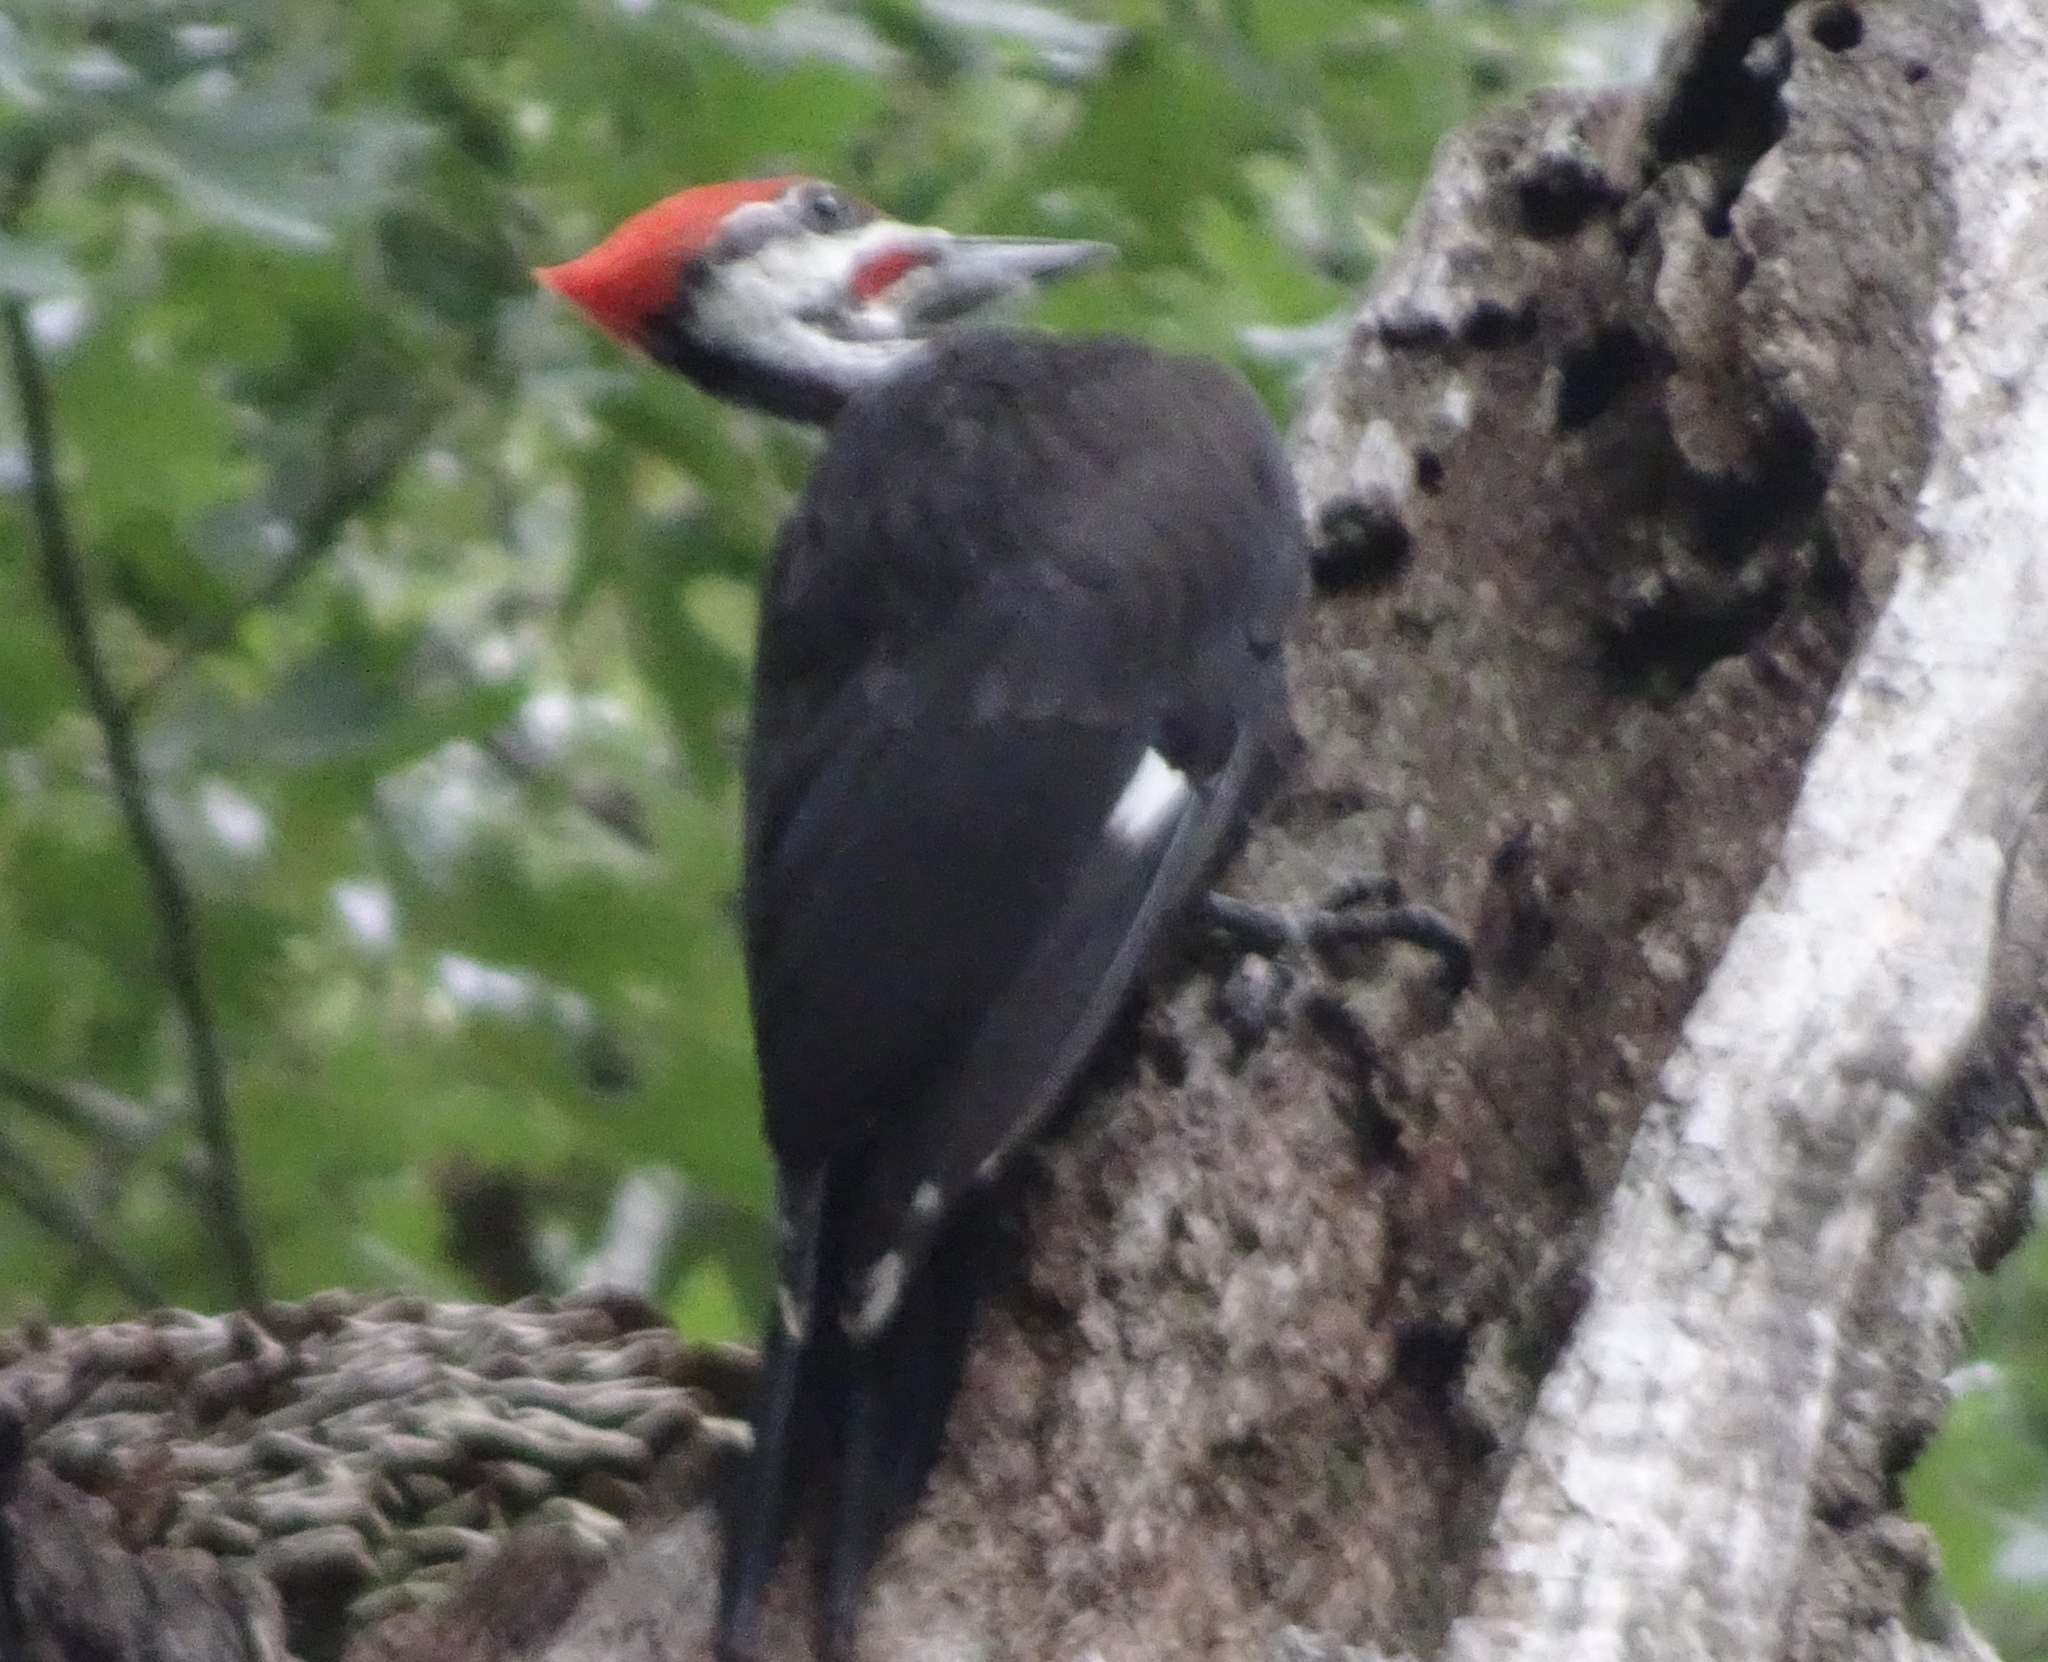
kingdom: Animalia
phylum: Chordata
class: Aves
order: Piciformes
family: Picidae
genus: Dryocopus
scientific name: Dryocopus pileatus
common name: Pileated woodpecker
